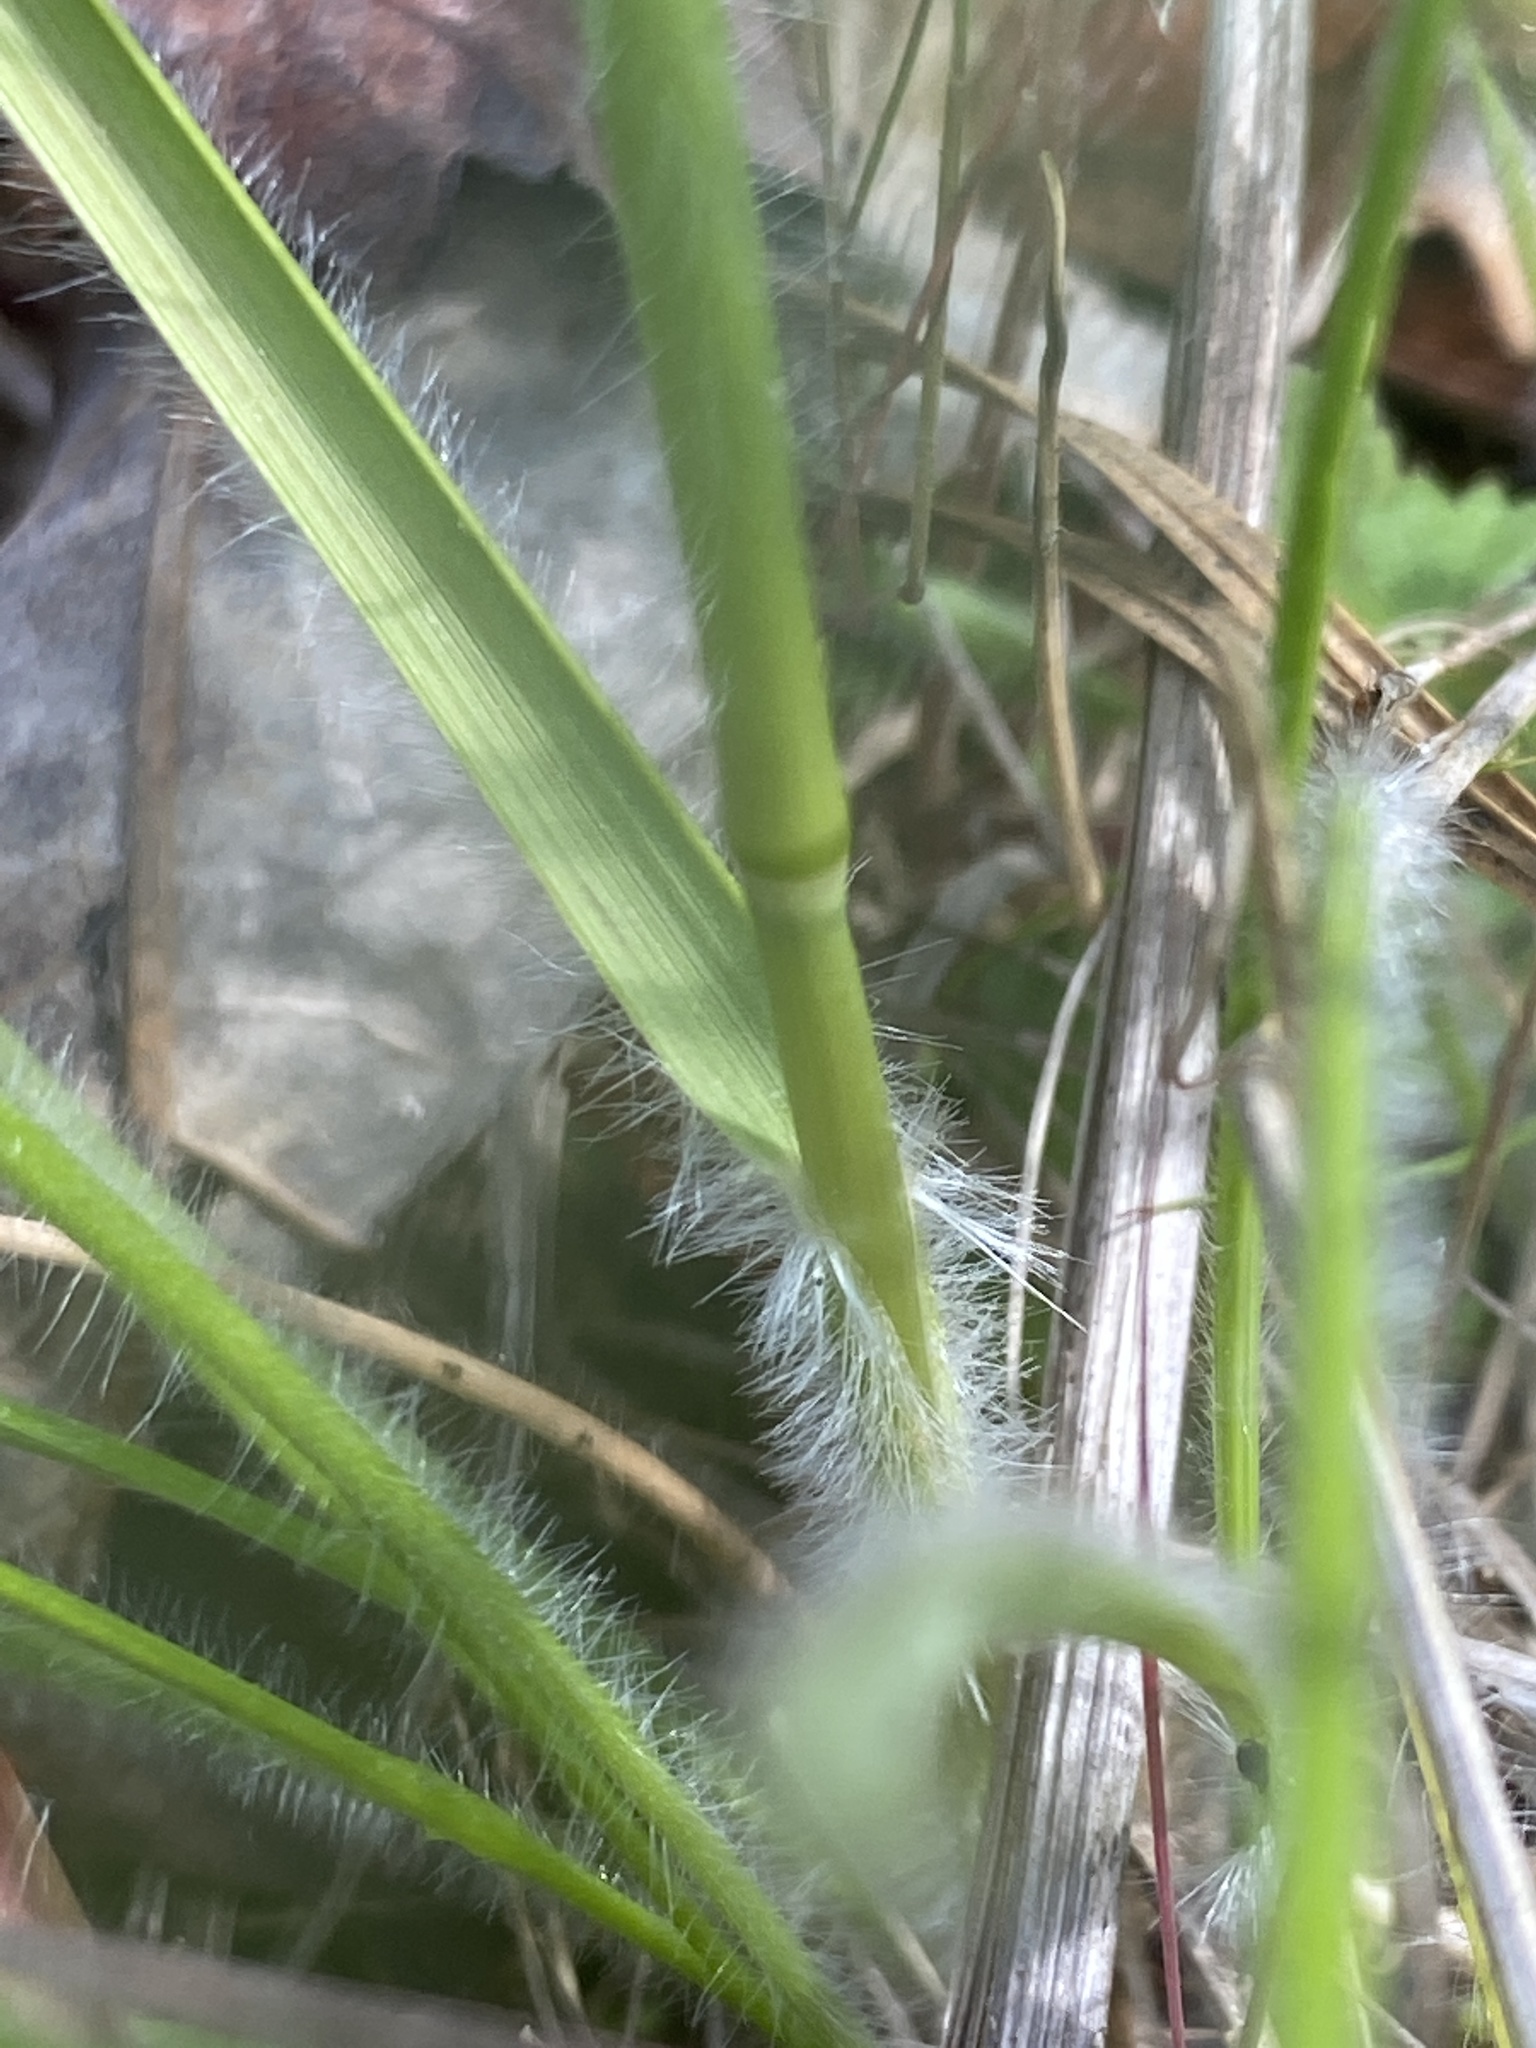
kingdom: Plantae
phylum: Tracheophyta
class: Liliopsida
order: Poales
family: Poaceae
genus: Danthonia
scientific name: Danthonia sericea
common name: Downy danthonia
